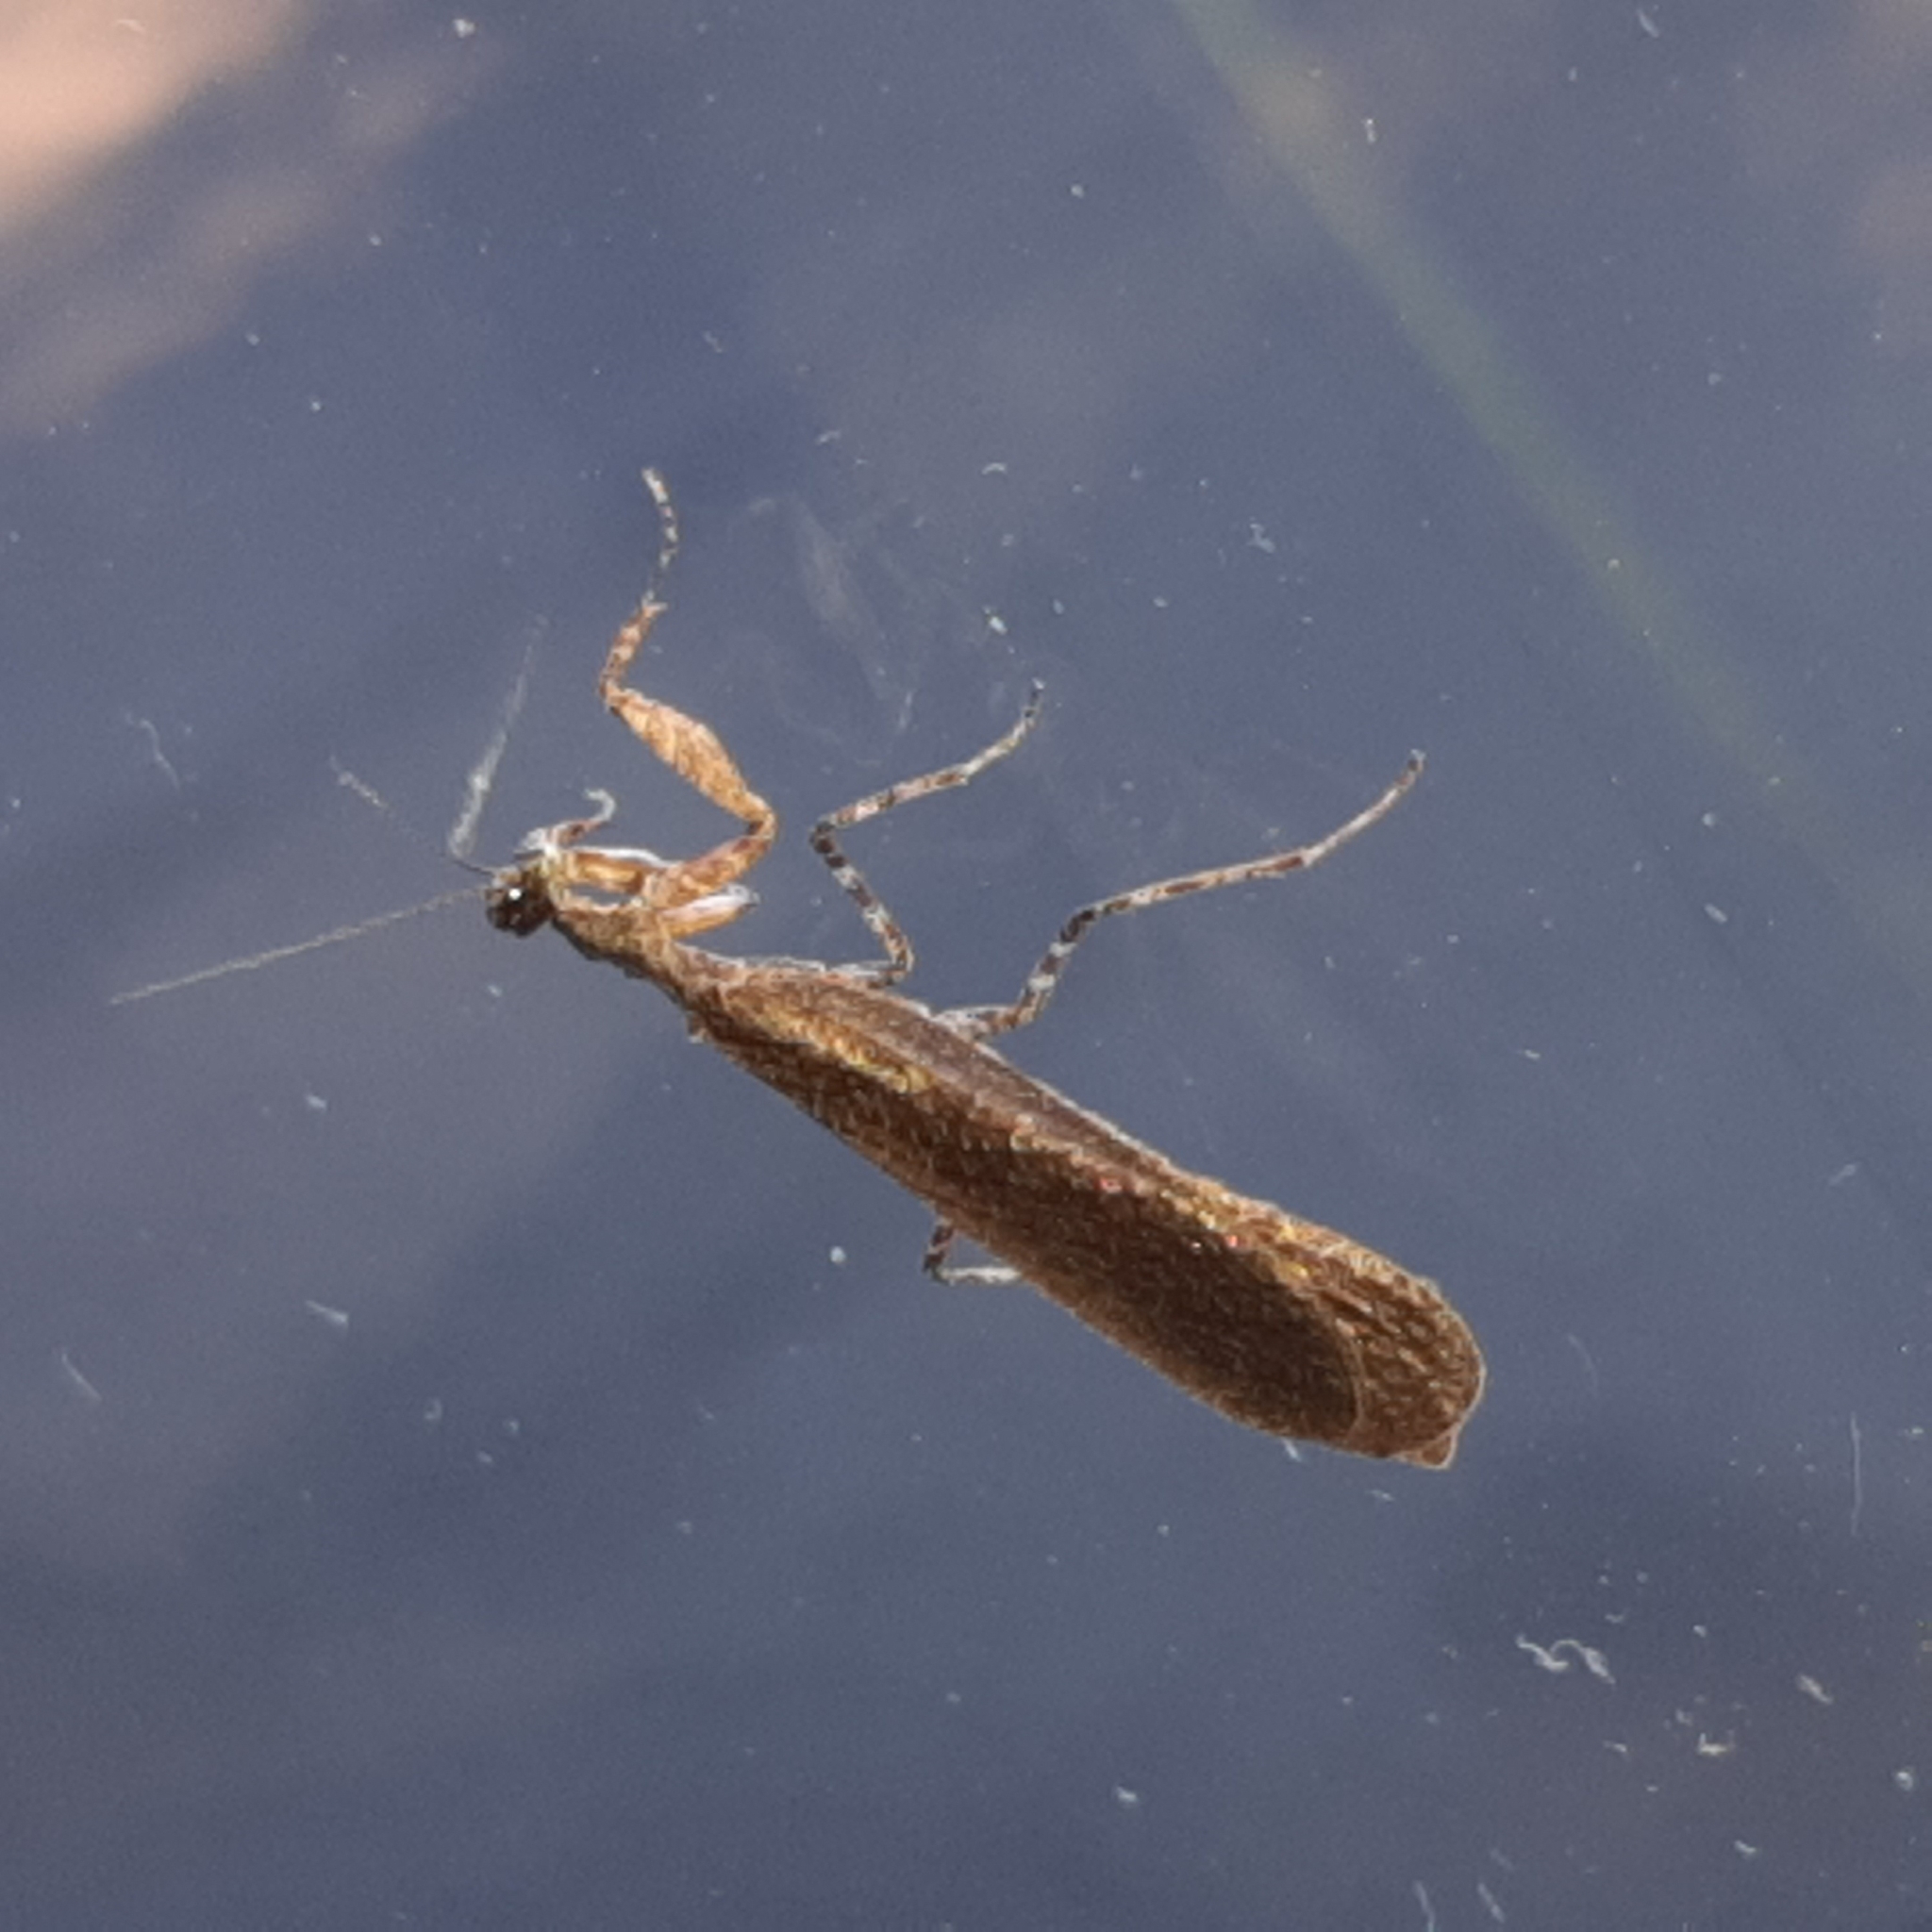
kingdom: Animalia
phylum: Arthropoda
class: Insecta
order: Mantodea
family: Thespidae
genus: Pseudomiopteryx
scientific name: Pseudomiopteryx infuscata
